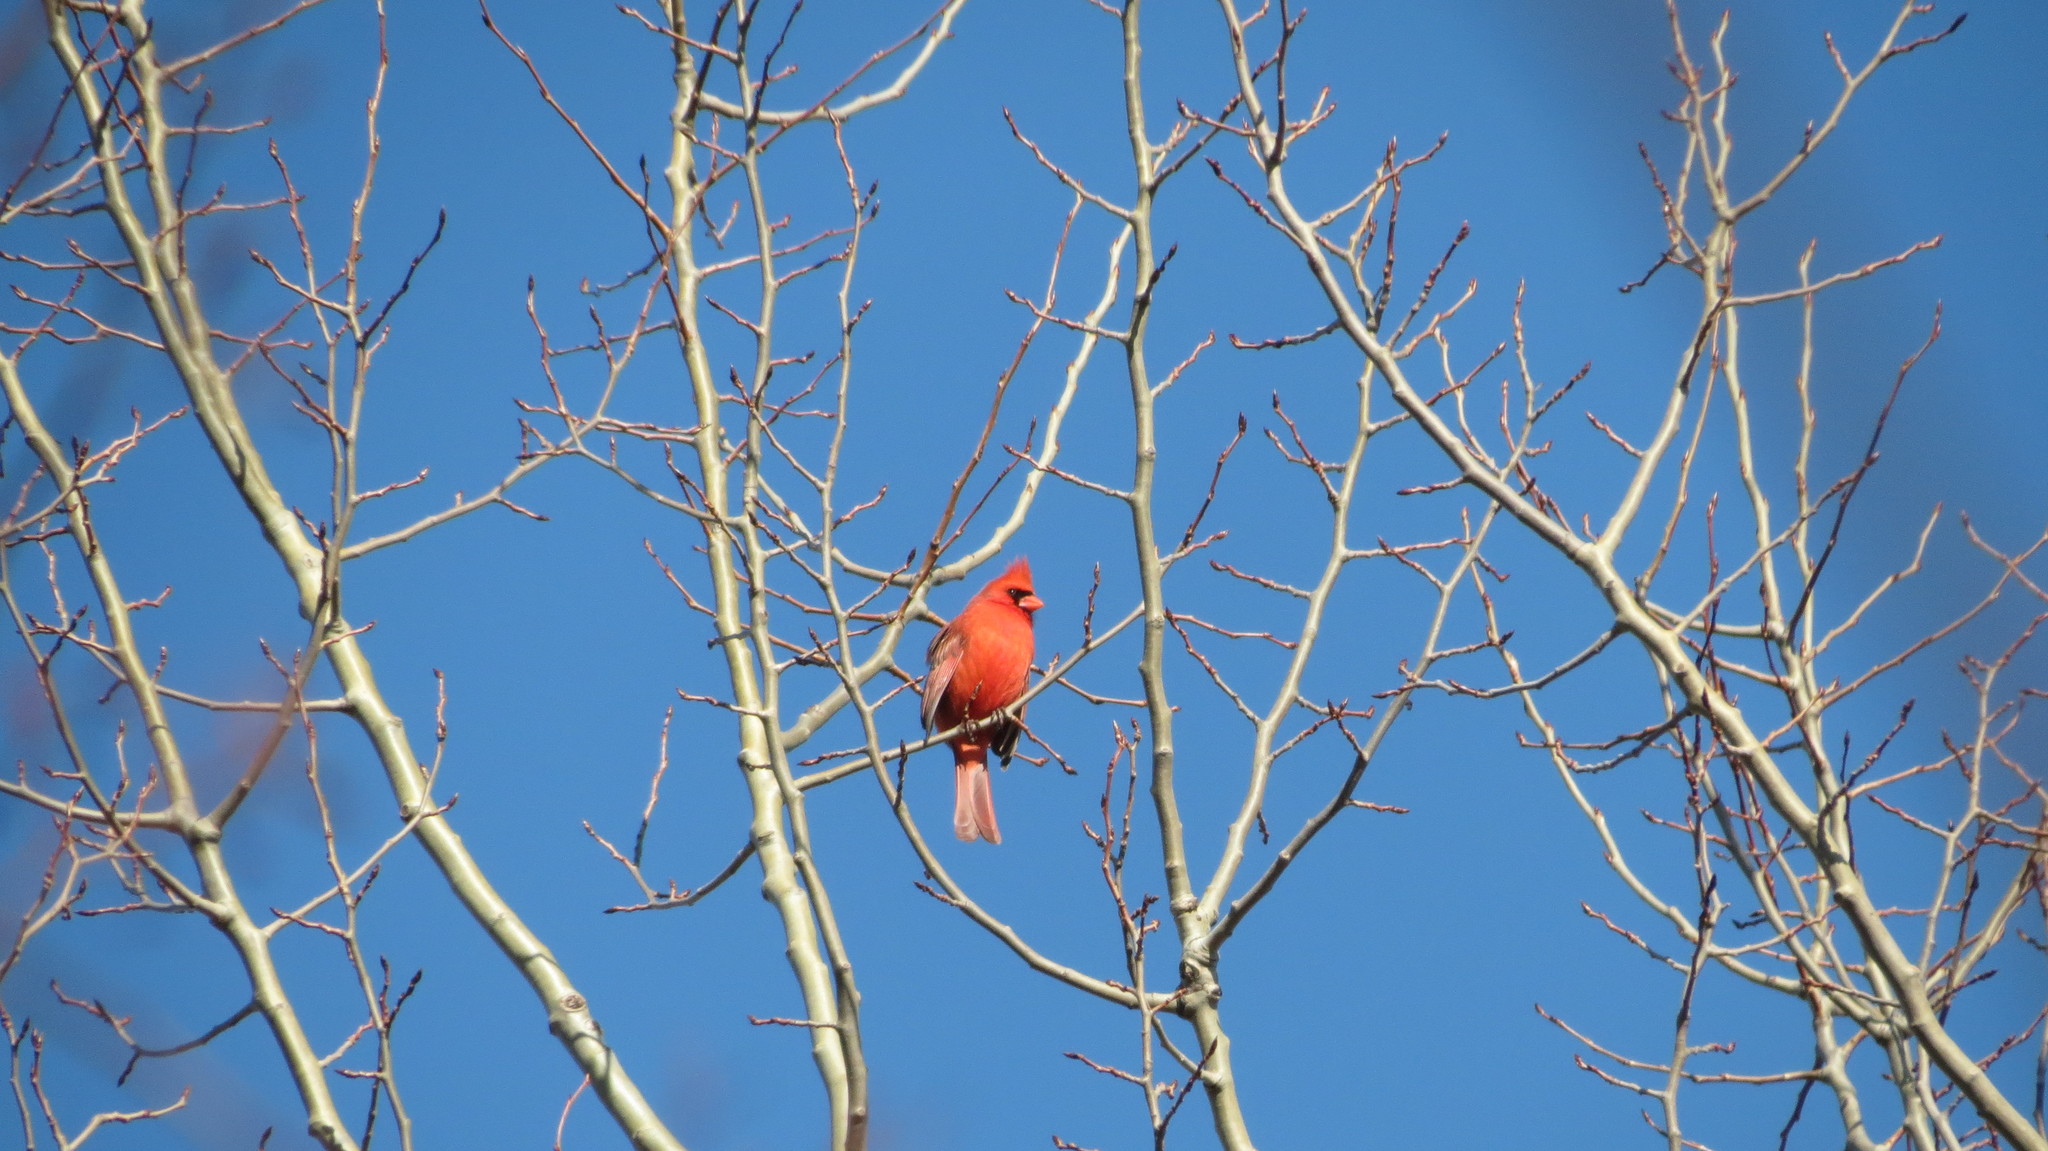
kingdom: Animalia
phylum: Chordata
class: Aves
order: Passeriformes
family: Cardinalidae
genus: Cardinalis
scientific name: Cardinalis cardinalis
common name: Northern cardinal
